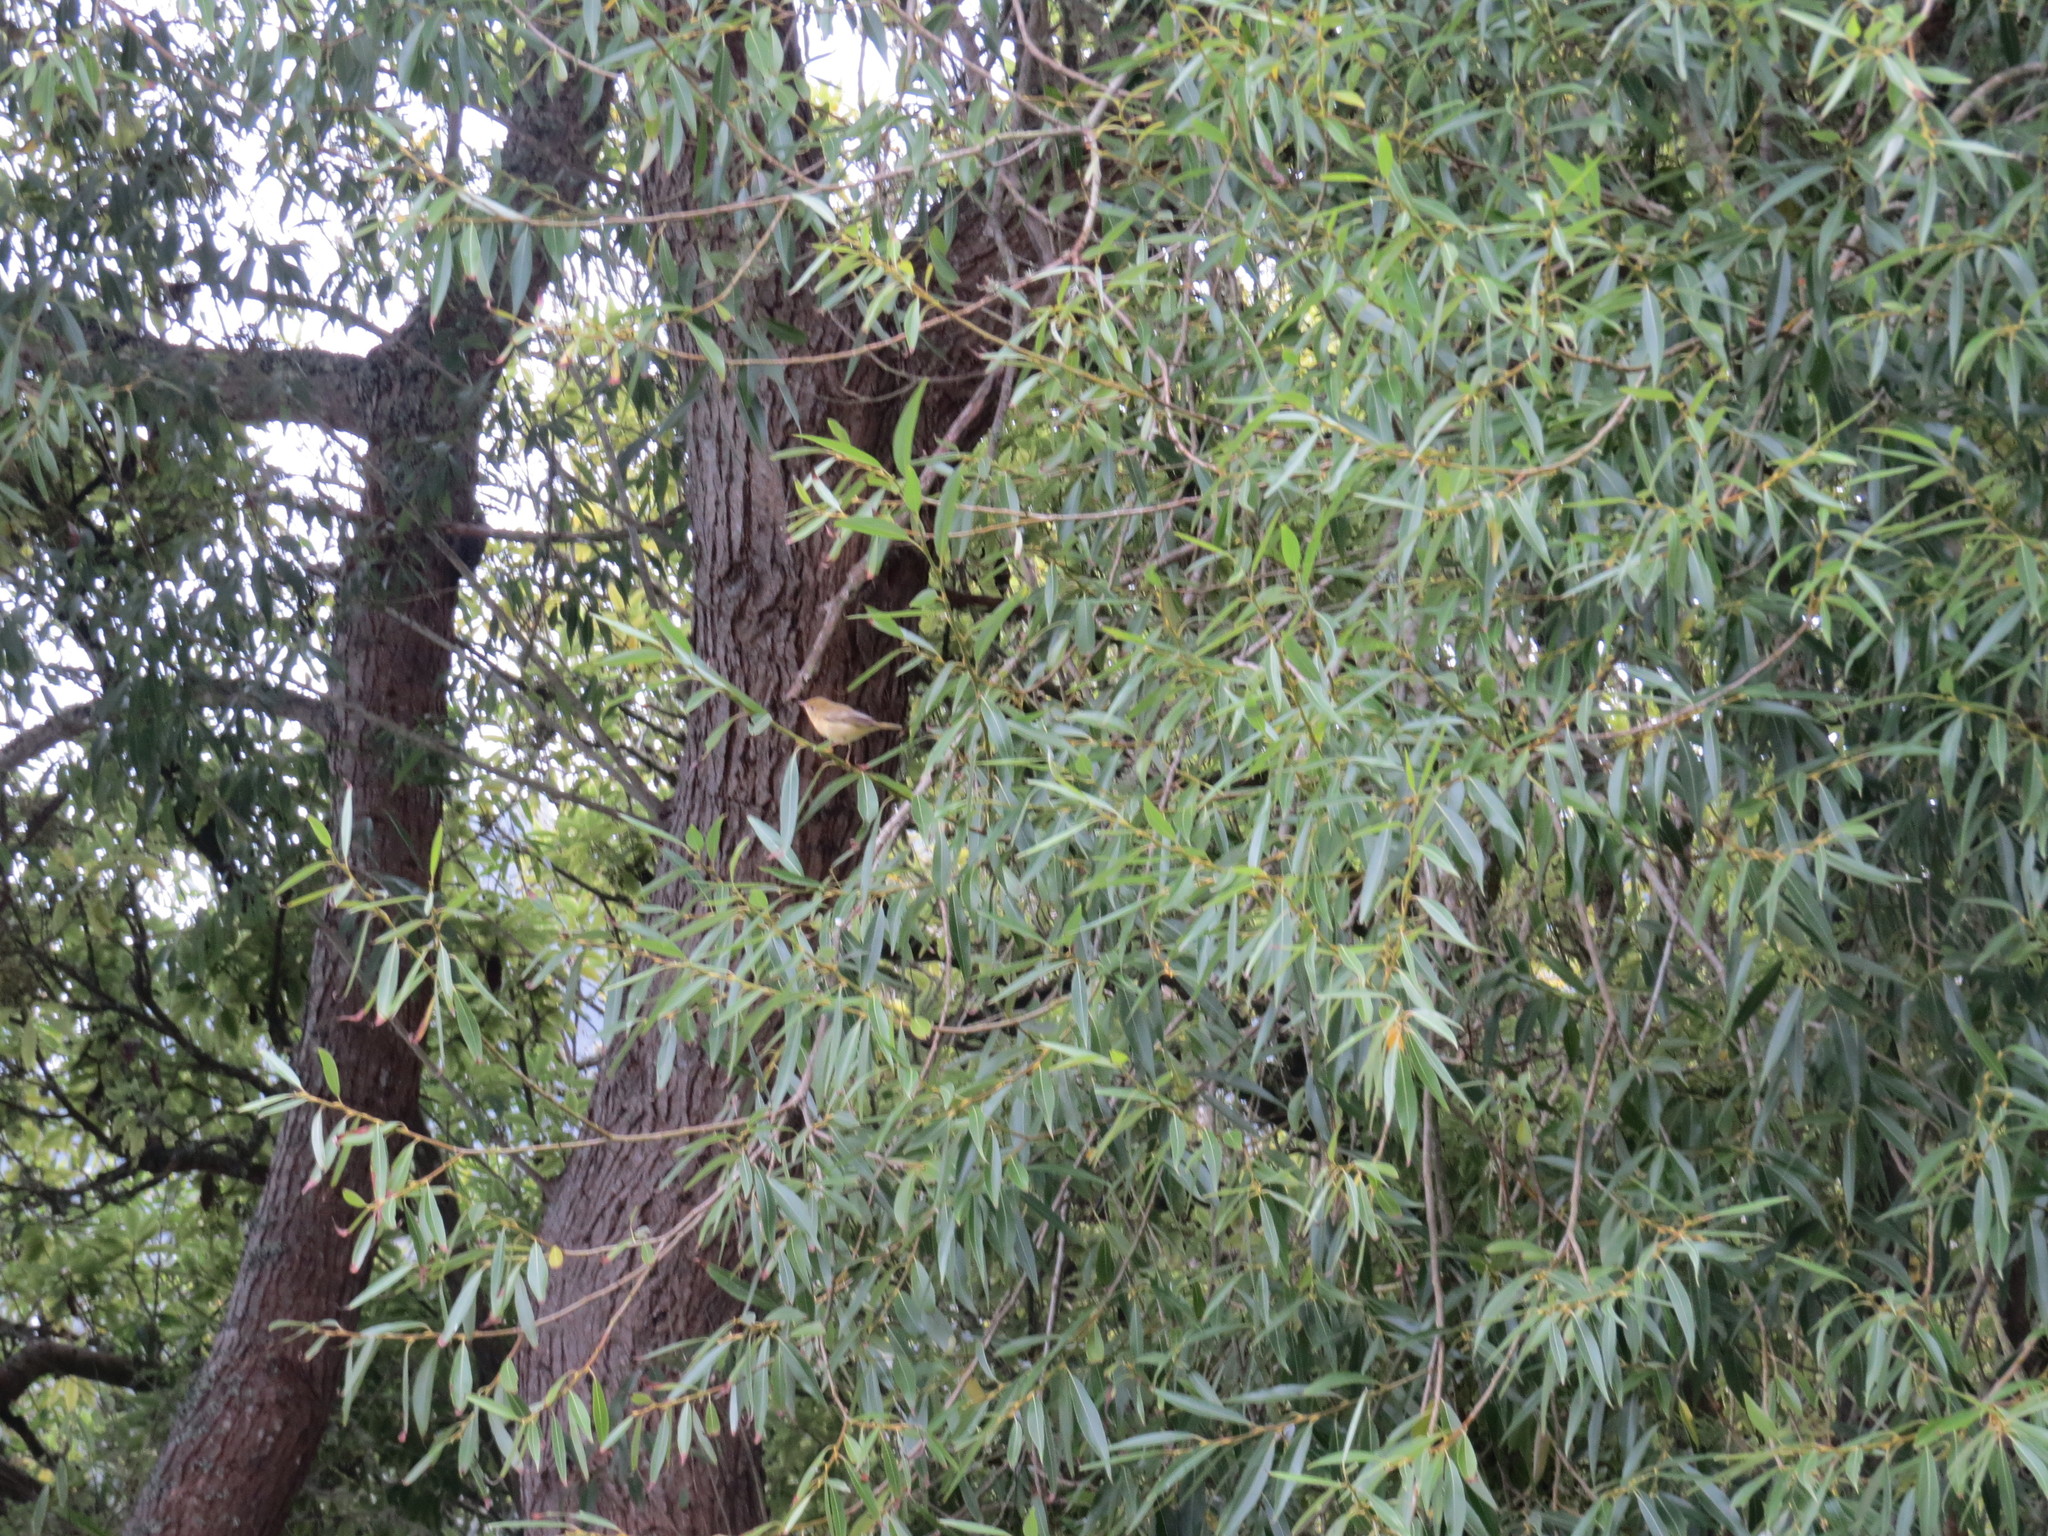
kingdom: Animalia
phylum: Chordata
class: Aves
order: Passeriformes
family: Parulidae
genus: Setophaga
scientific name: Setophaga petechia
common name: Yellow warbler
